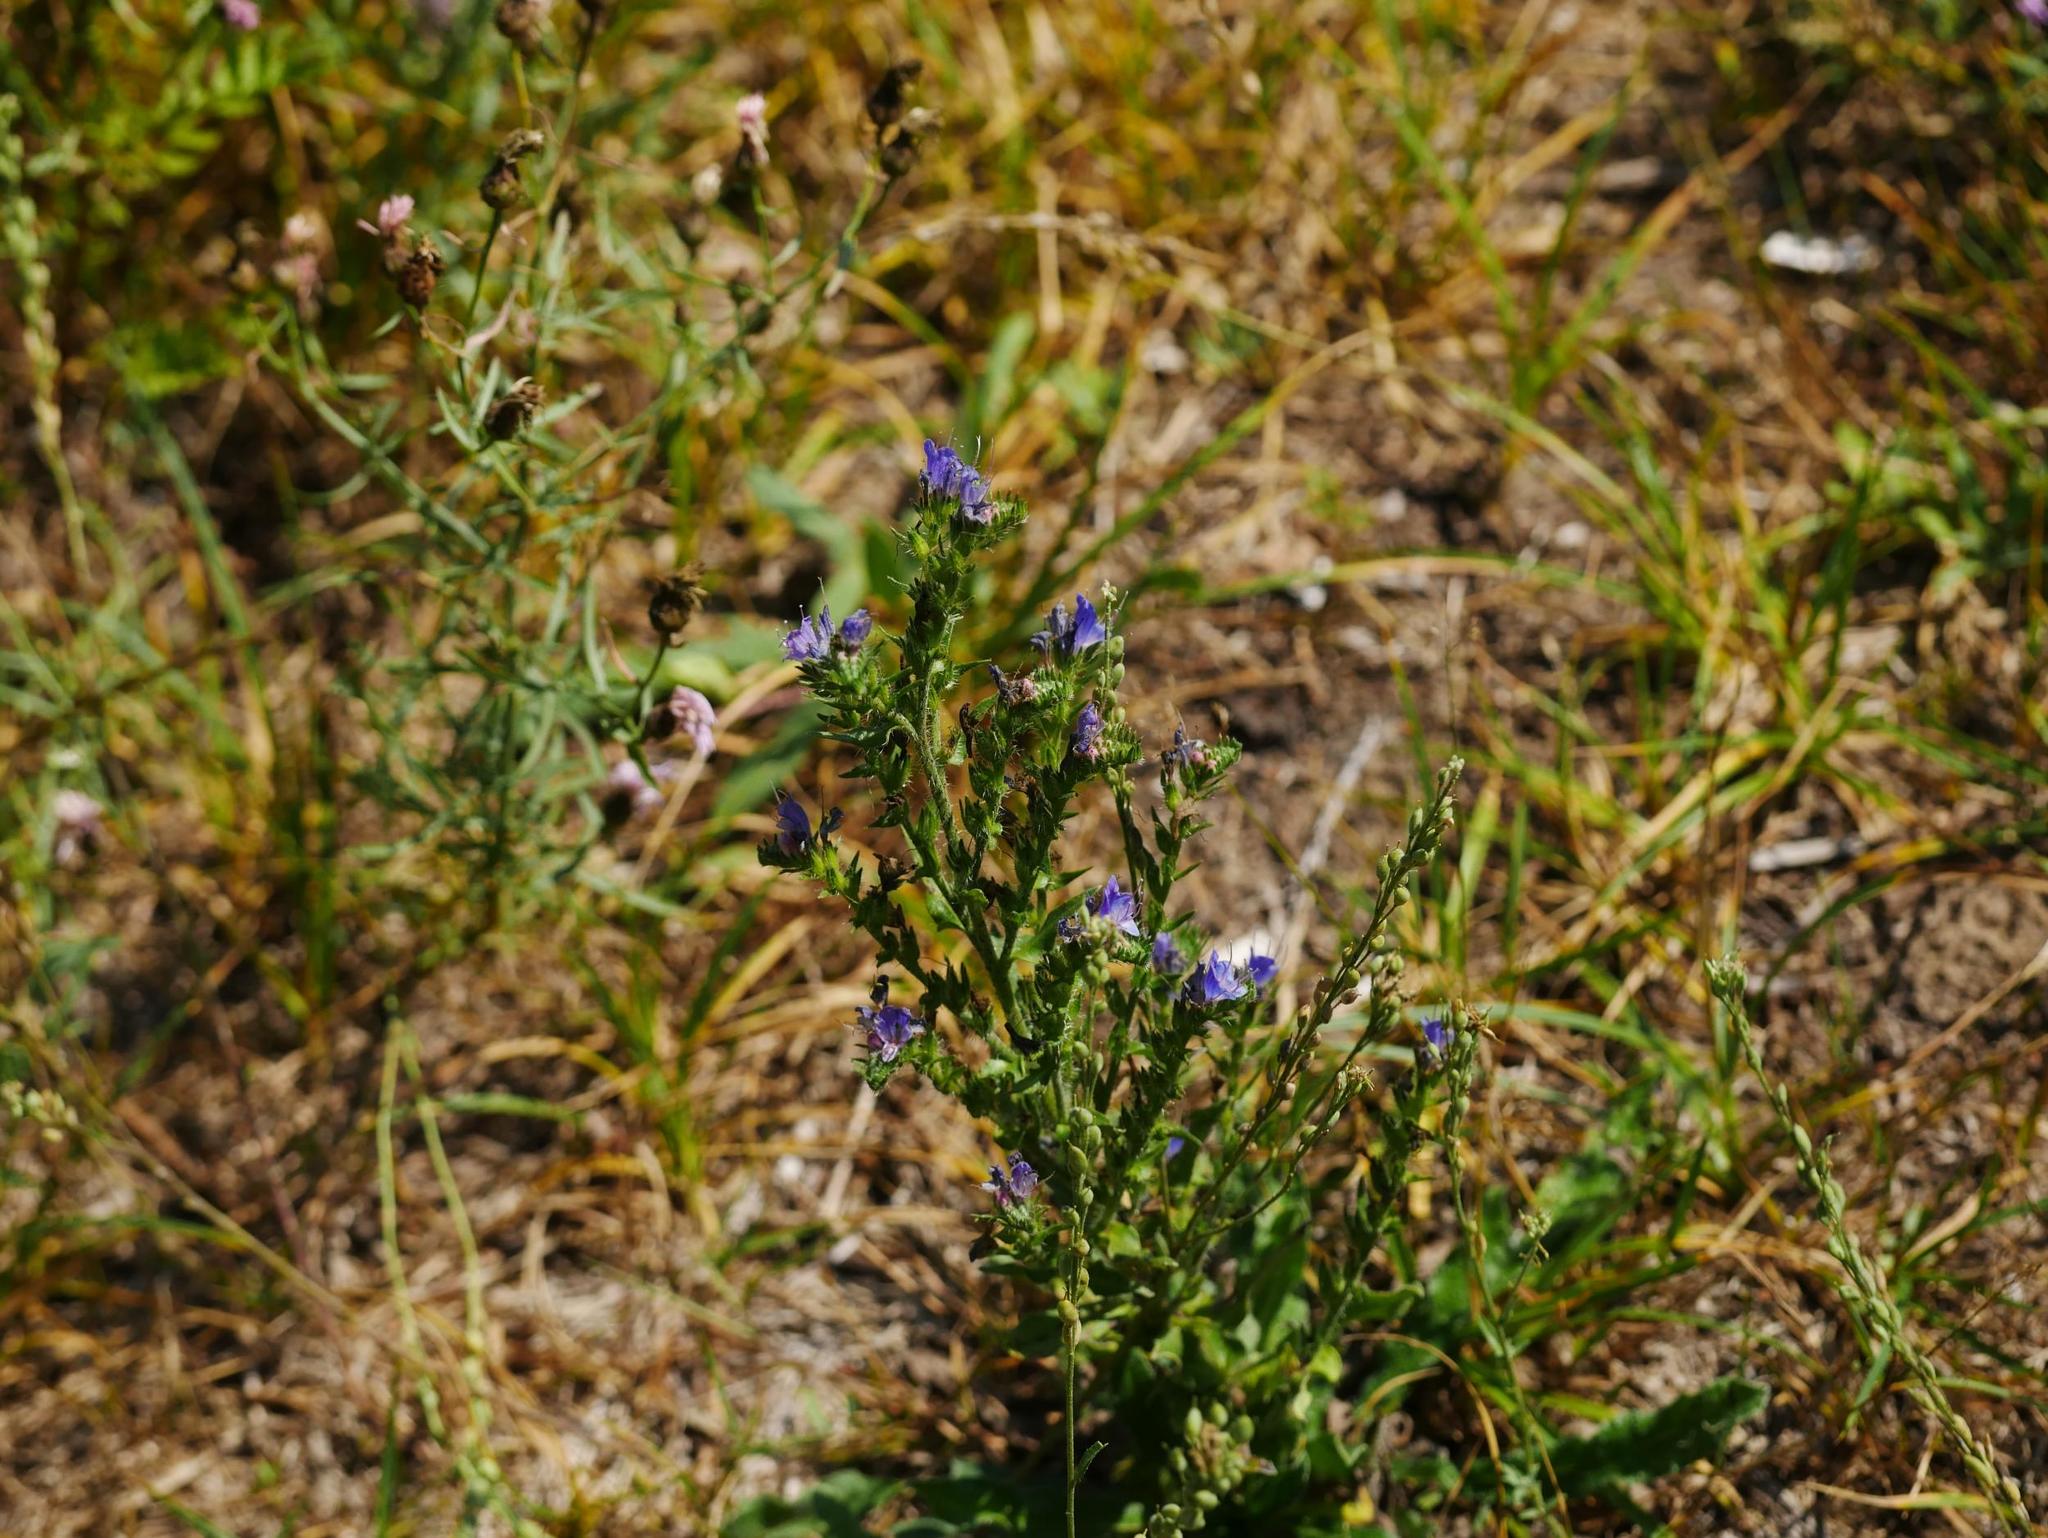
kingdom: Plantae
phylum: Tracheophyta
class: Magnoliopsida
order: Boraginales
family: Boraginaceae
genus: Echium
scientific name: Echium vulgare
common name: Common viper's bugloss
